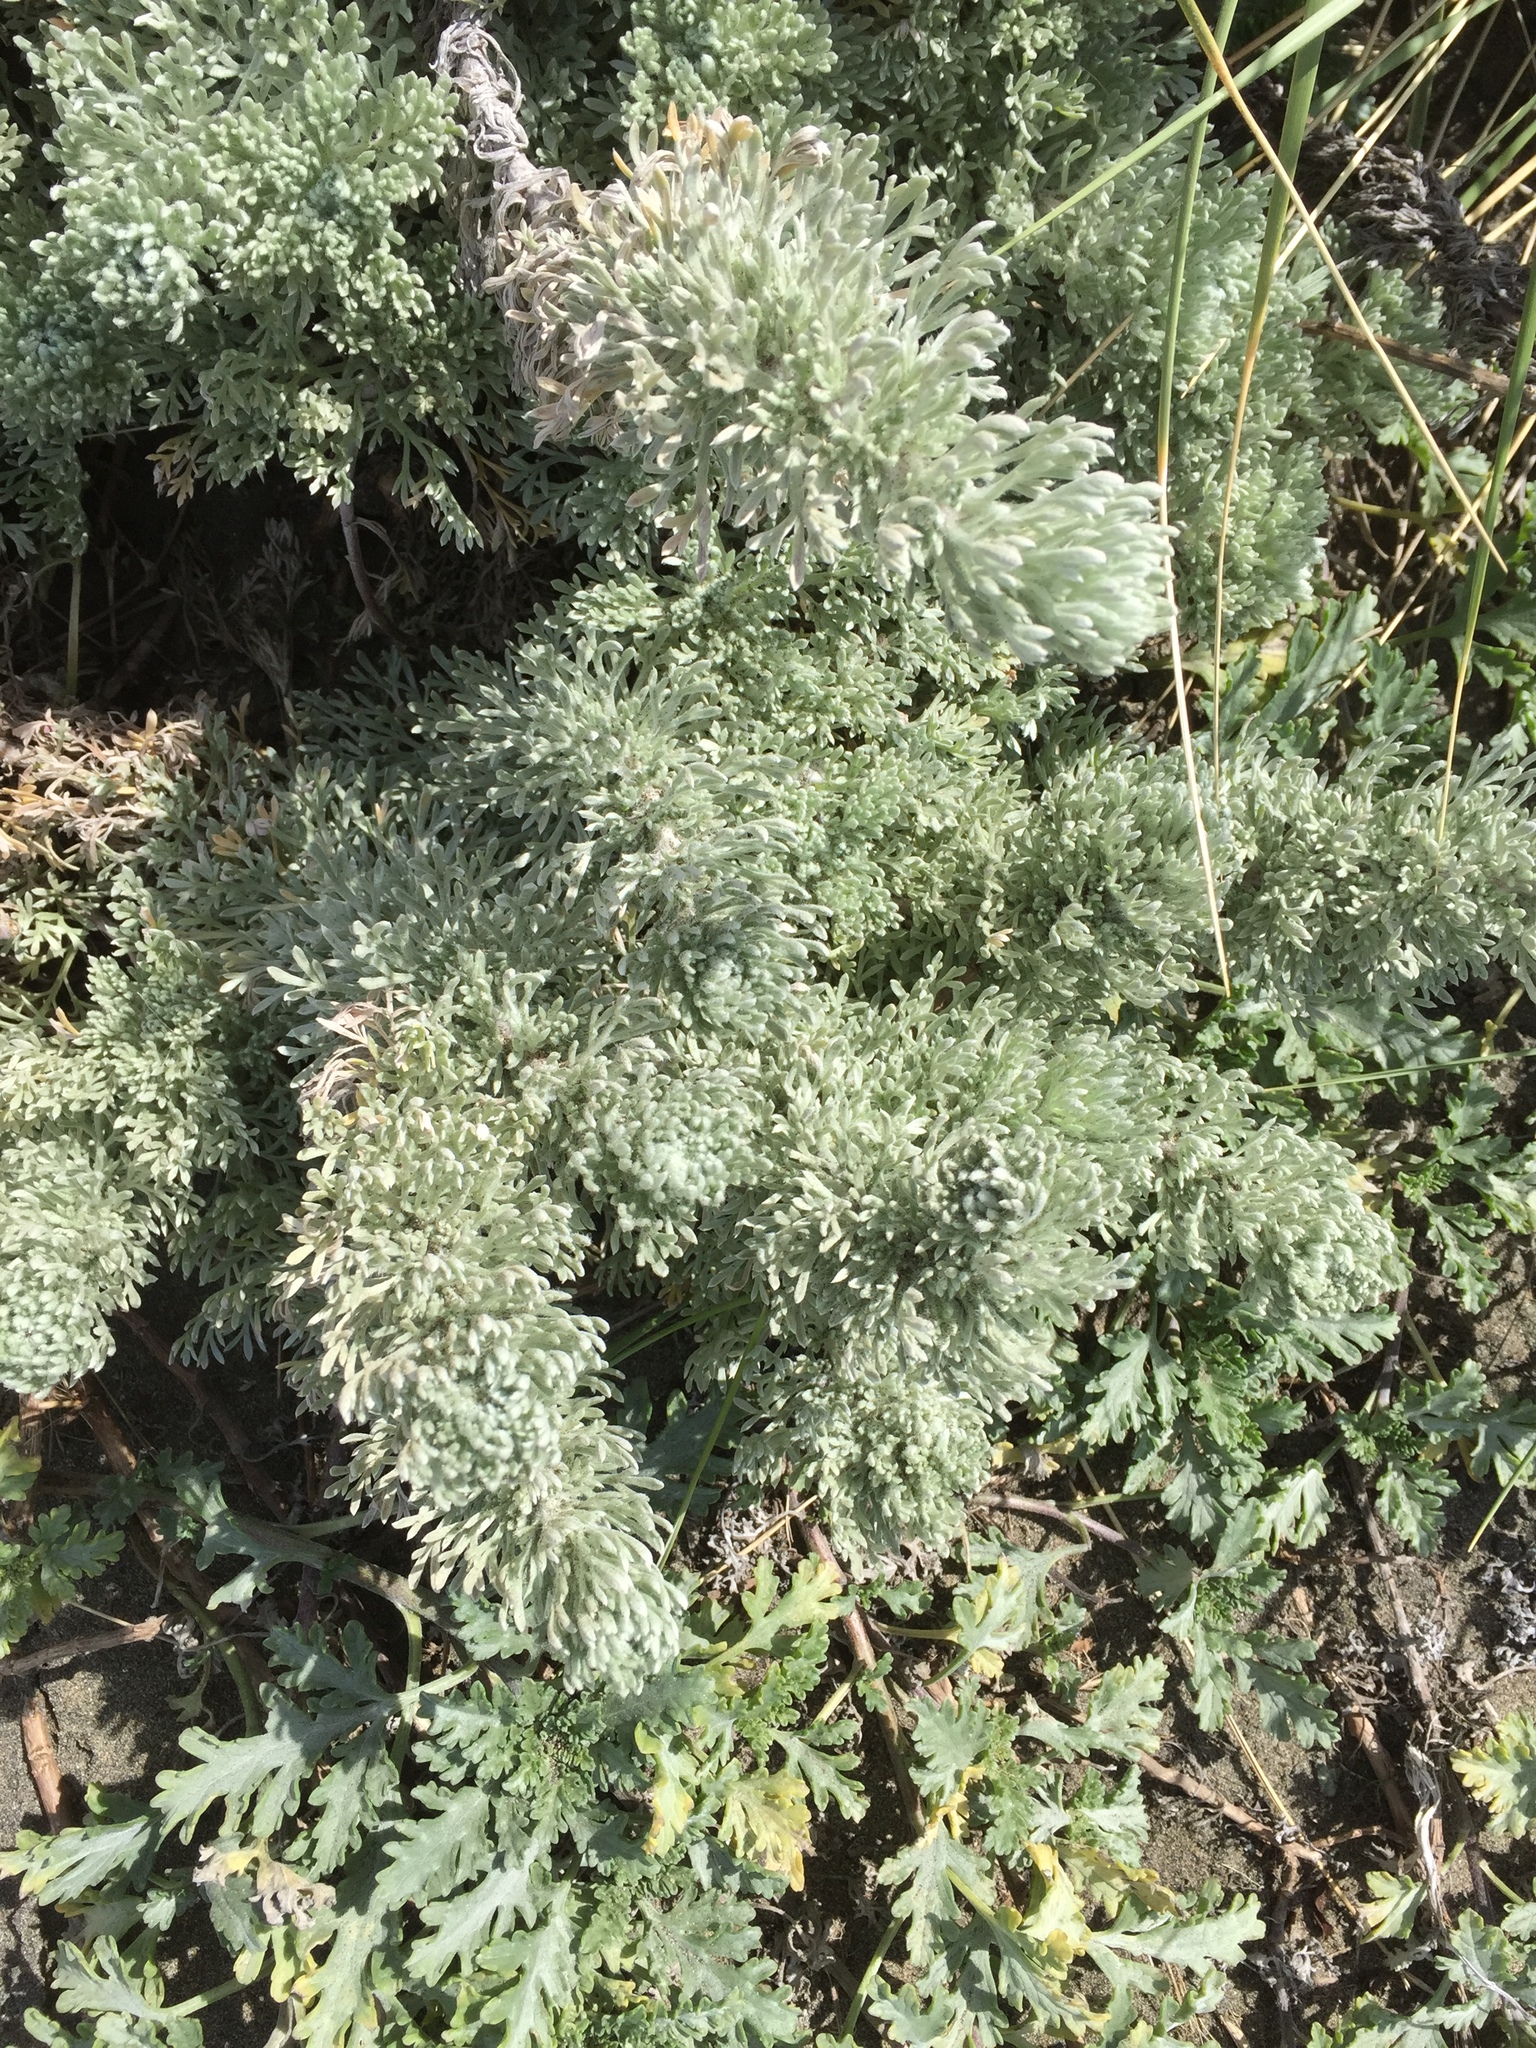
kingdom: Plantae
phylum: Tracheophyta
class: Magnoliopsida
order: Asterales
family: Asteraceae
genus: Artemisia
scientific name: Artemisia pycnocephala
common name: Coastal sagewort
